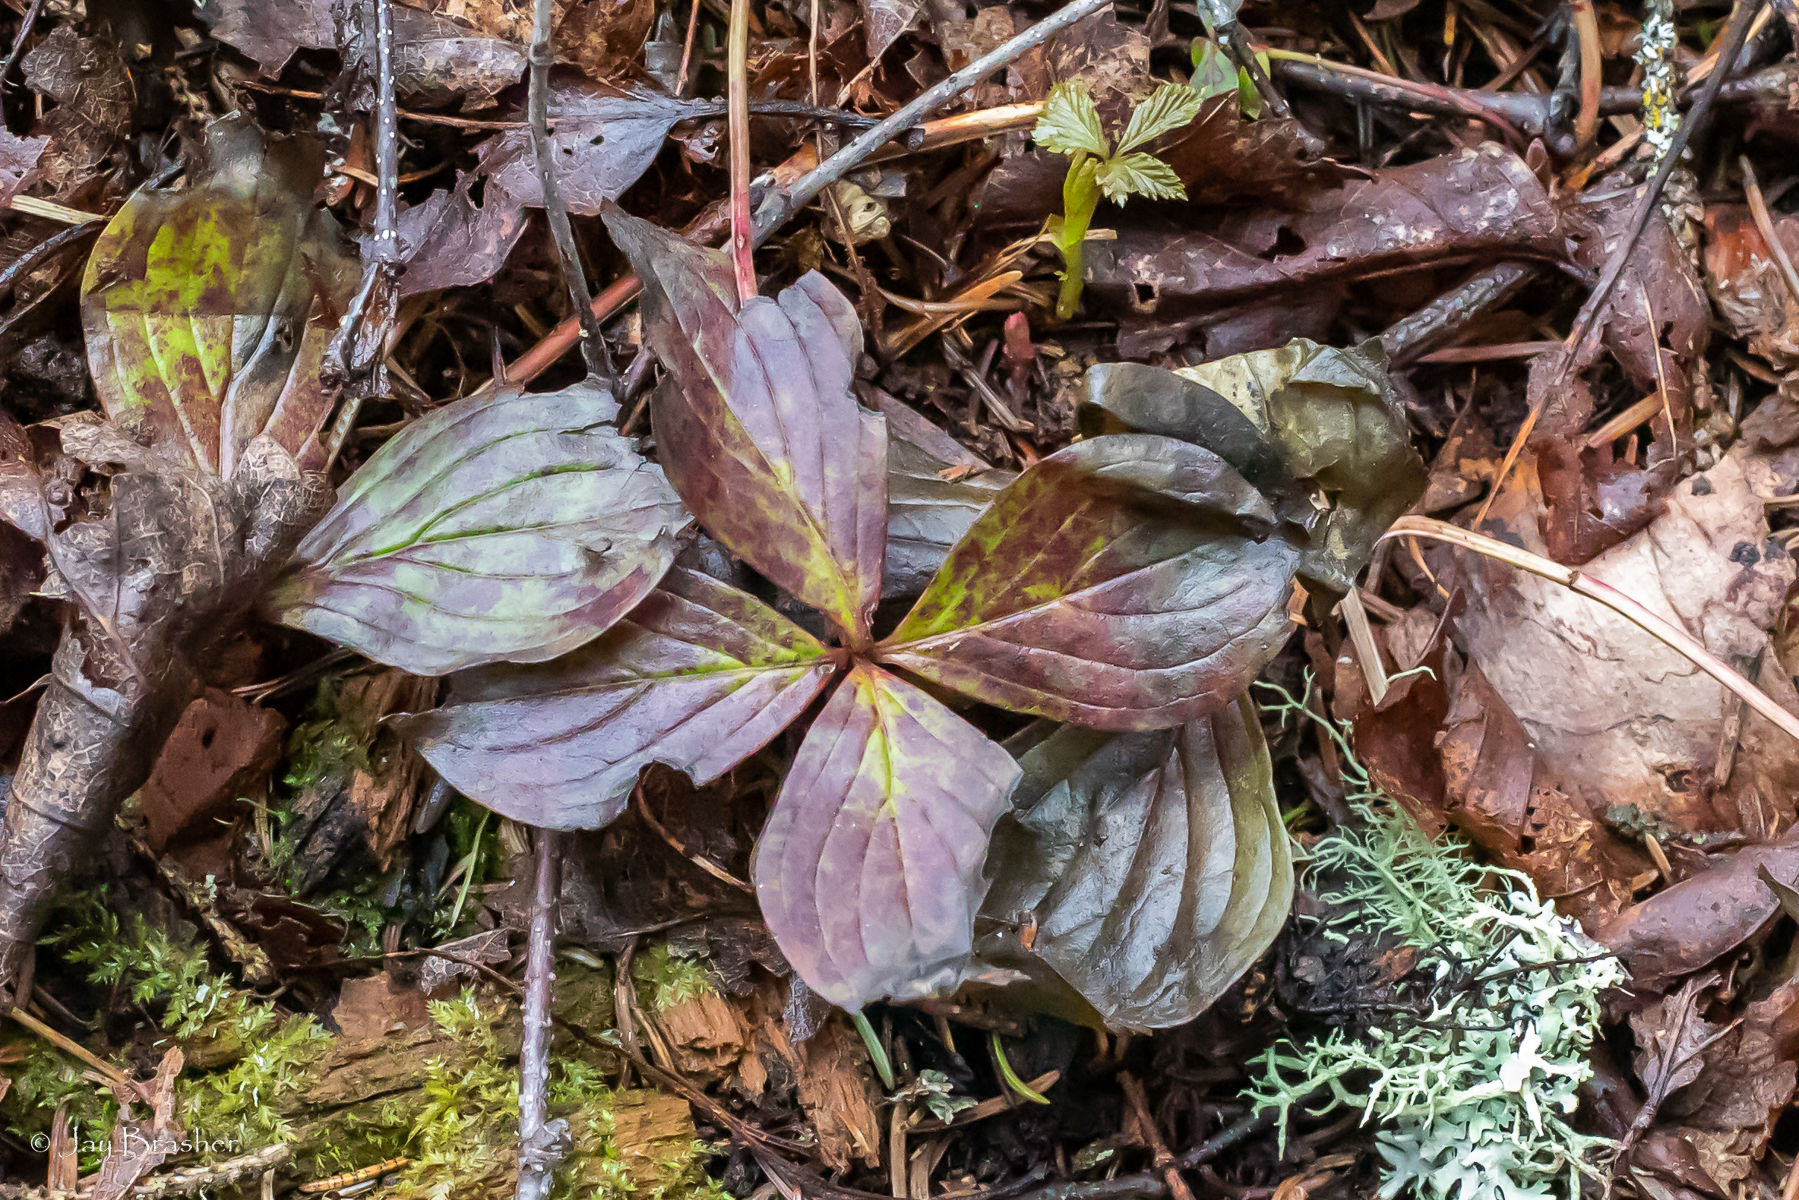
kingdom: Plantae
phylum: Tracheophyta
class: Magnoliopsida
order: Cornales
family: Cornaceae
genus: Cornus
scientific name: Cornus canadensis
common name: Creeping dogwood
